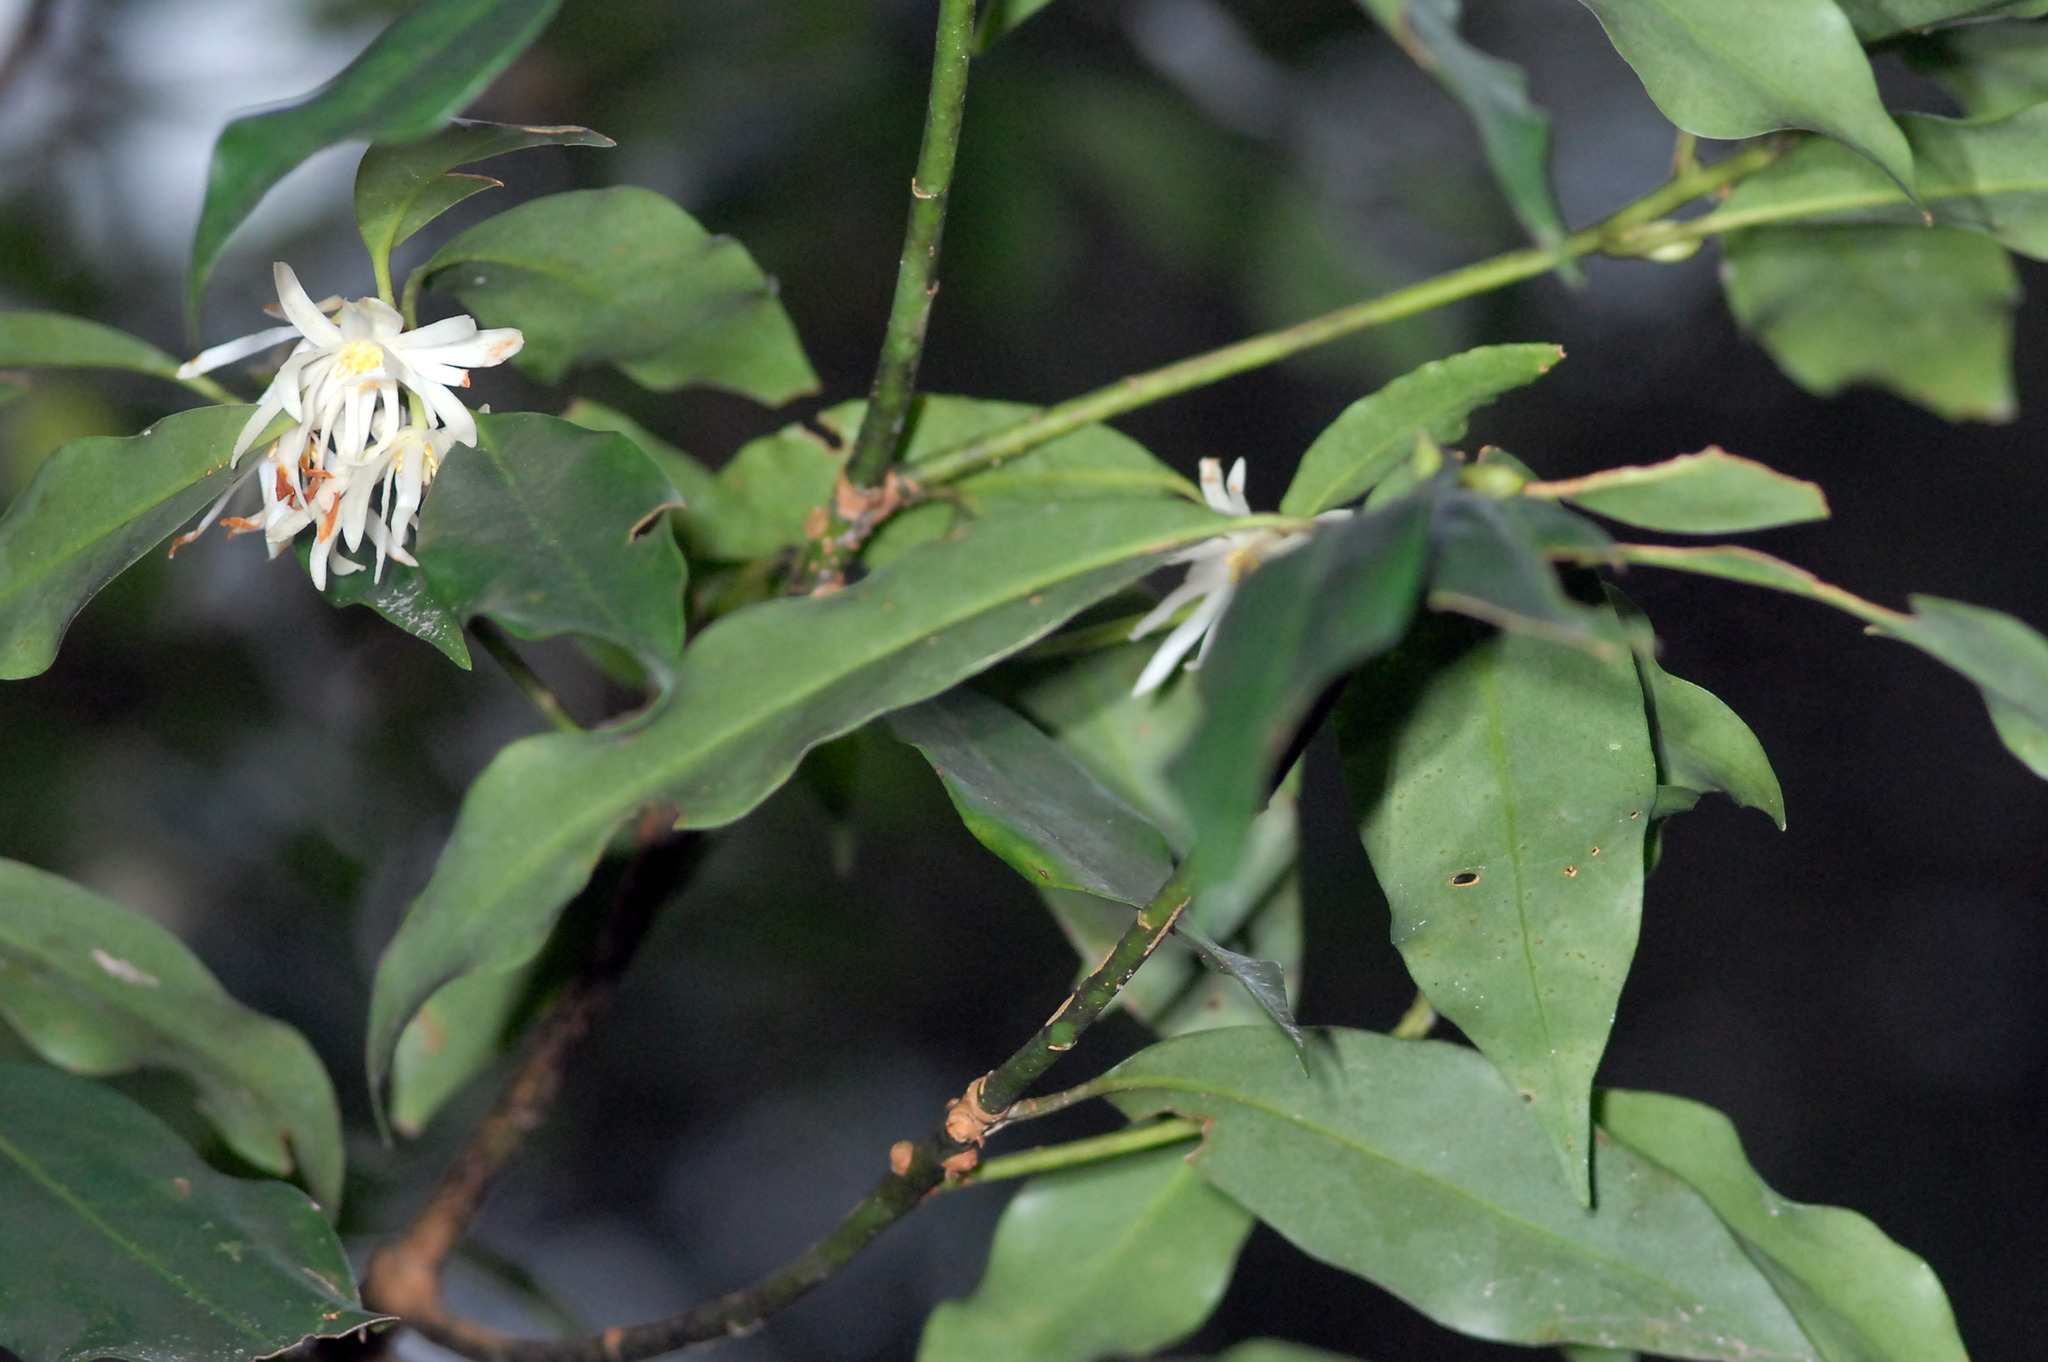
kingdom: Plantae
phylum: Tracheophyta
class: Magnoliopsida
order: Austrobaileyales
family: Schisandraceae
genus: Illicium
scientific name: Illicium anisatum
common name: Sacred anisetree
